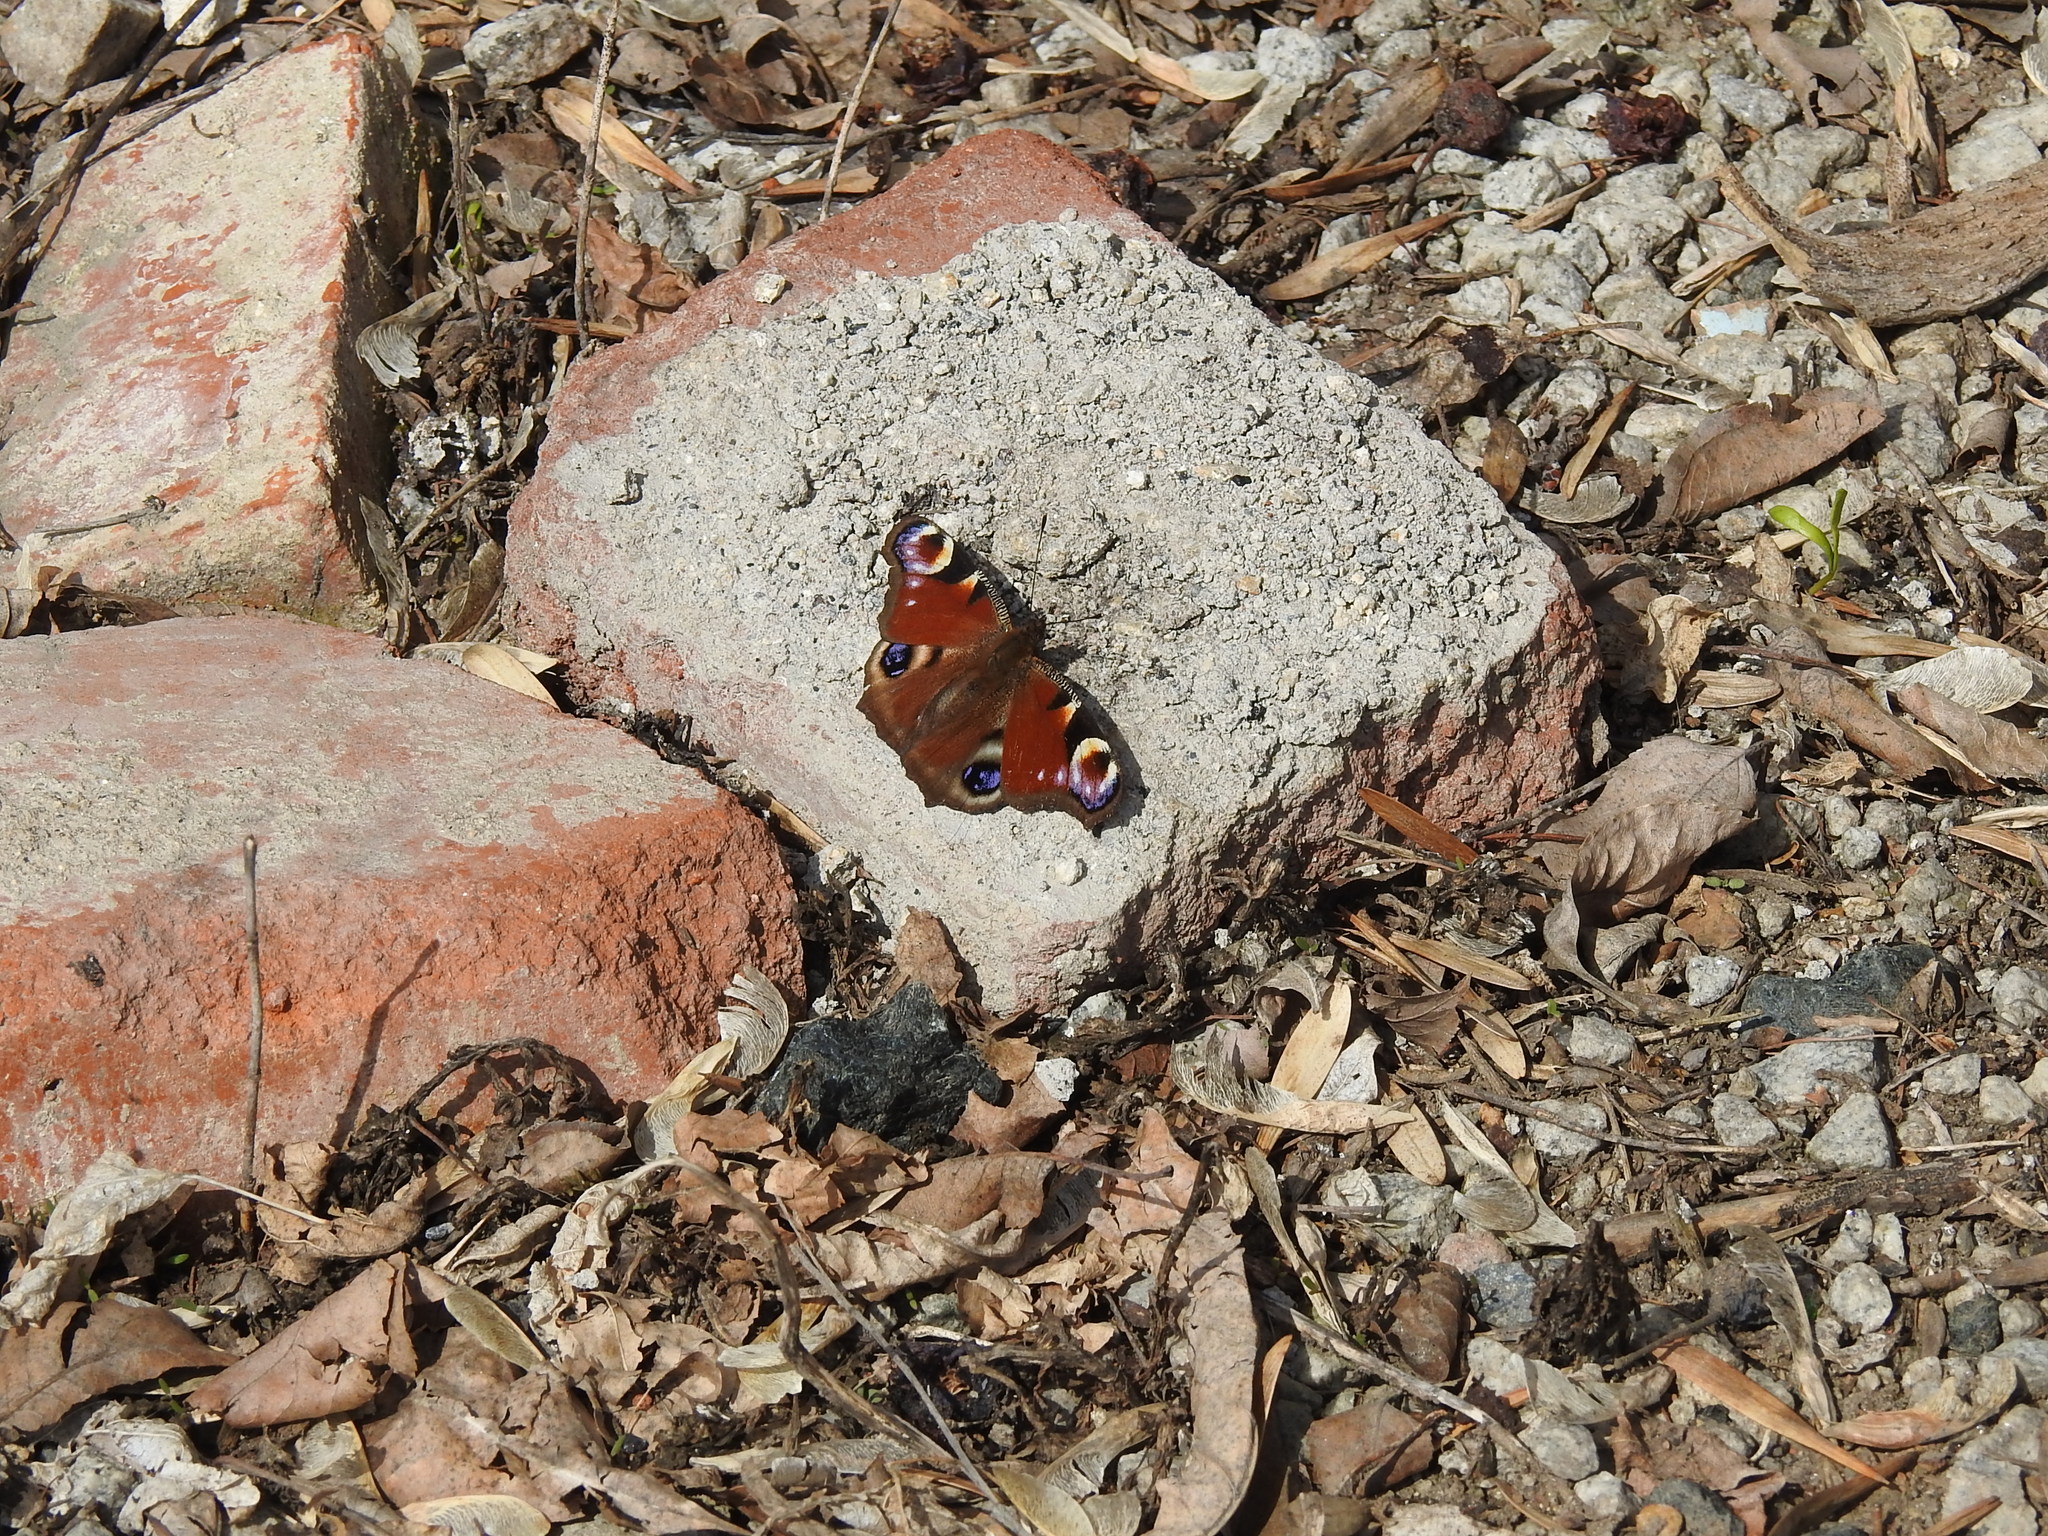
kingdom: Animalia
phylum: Arthropoda
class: Insecta
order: Lepidoptera
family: Nymphalidae
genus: Aglais
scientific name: Aglais io
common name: Peacock
